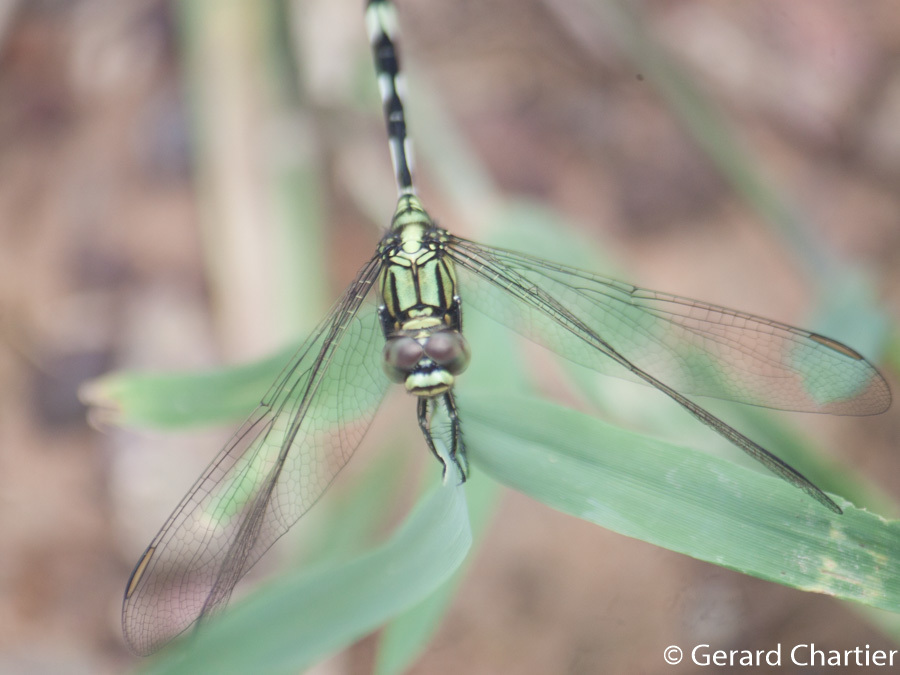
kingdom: Animalia
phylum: Arthropoda
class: Insecta
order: Odonata
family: Libellulidae
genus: Orthetrum
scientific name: Orthetrum sabina
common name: Slender skimmer
